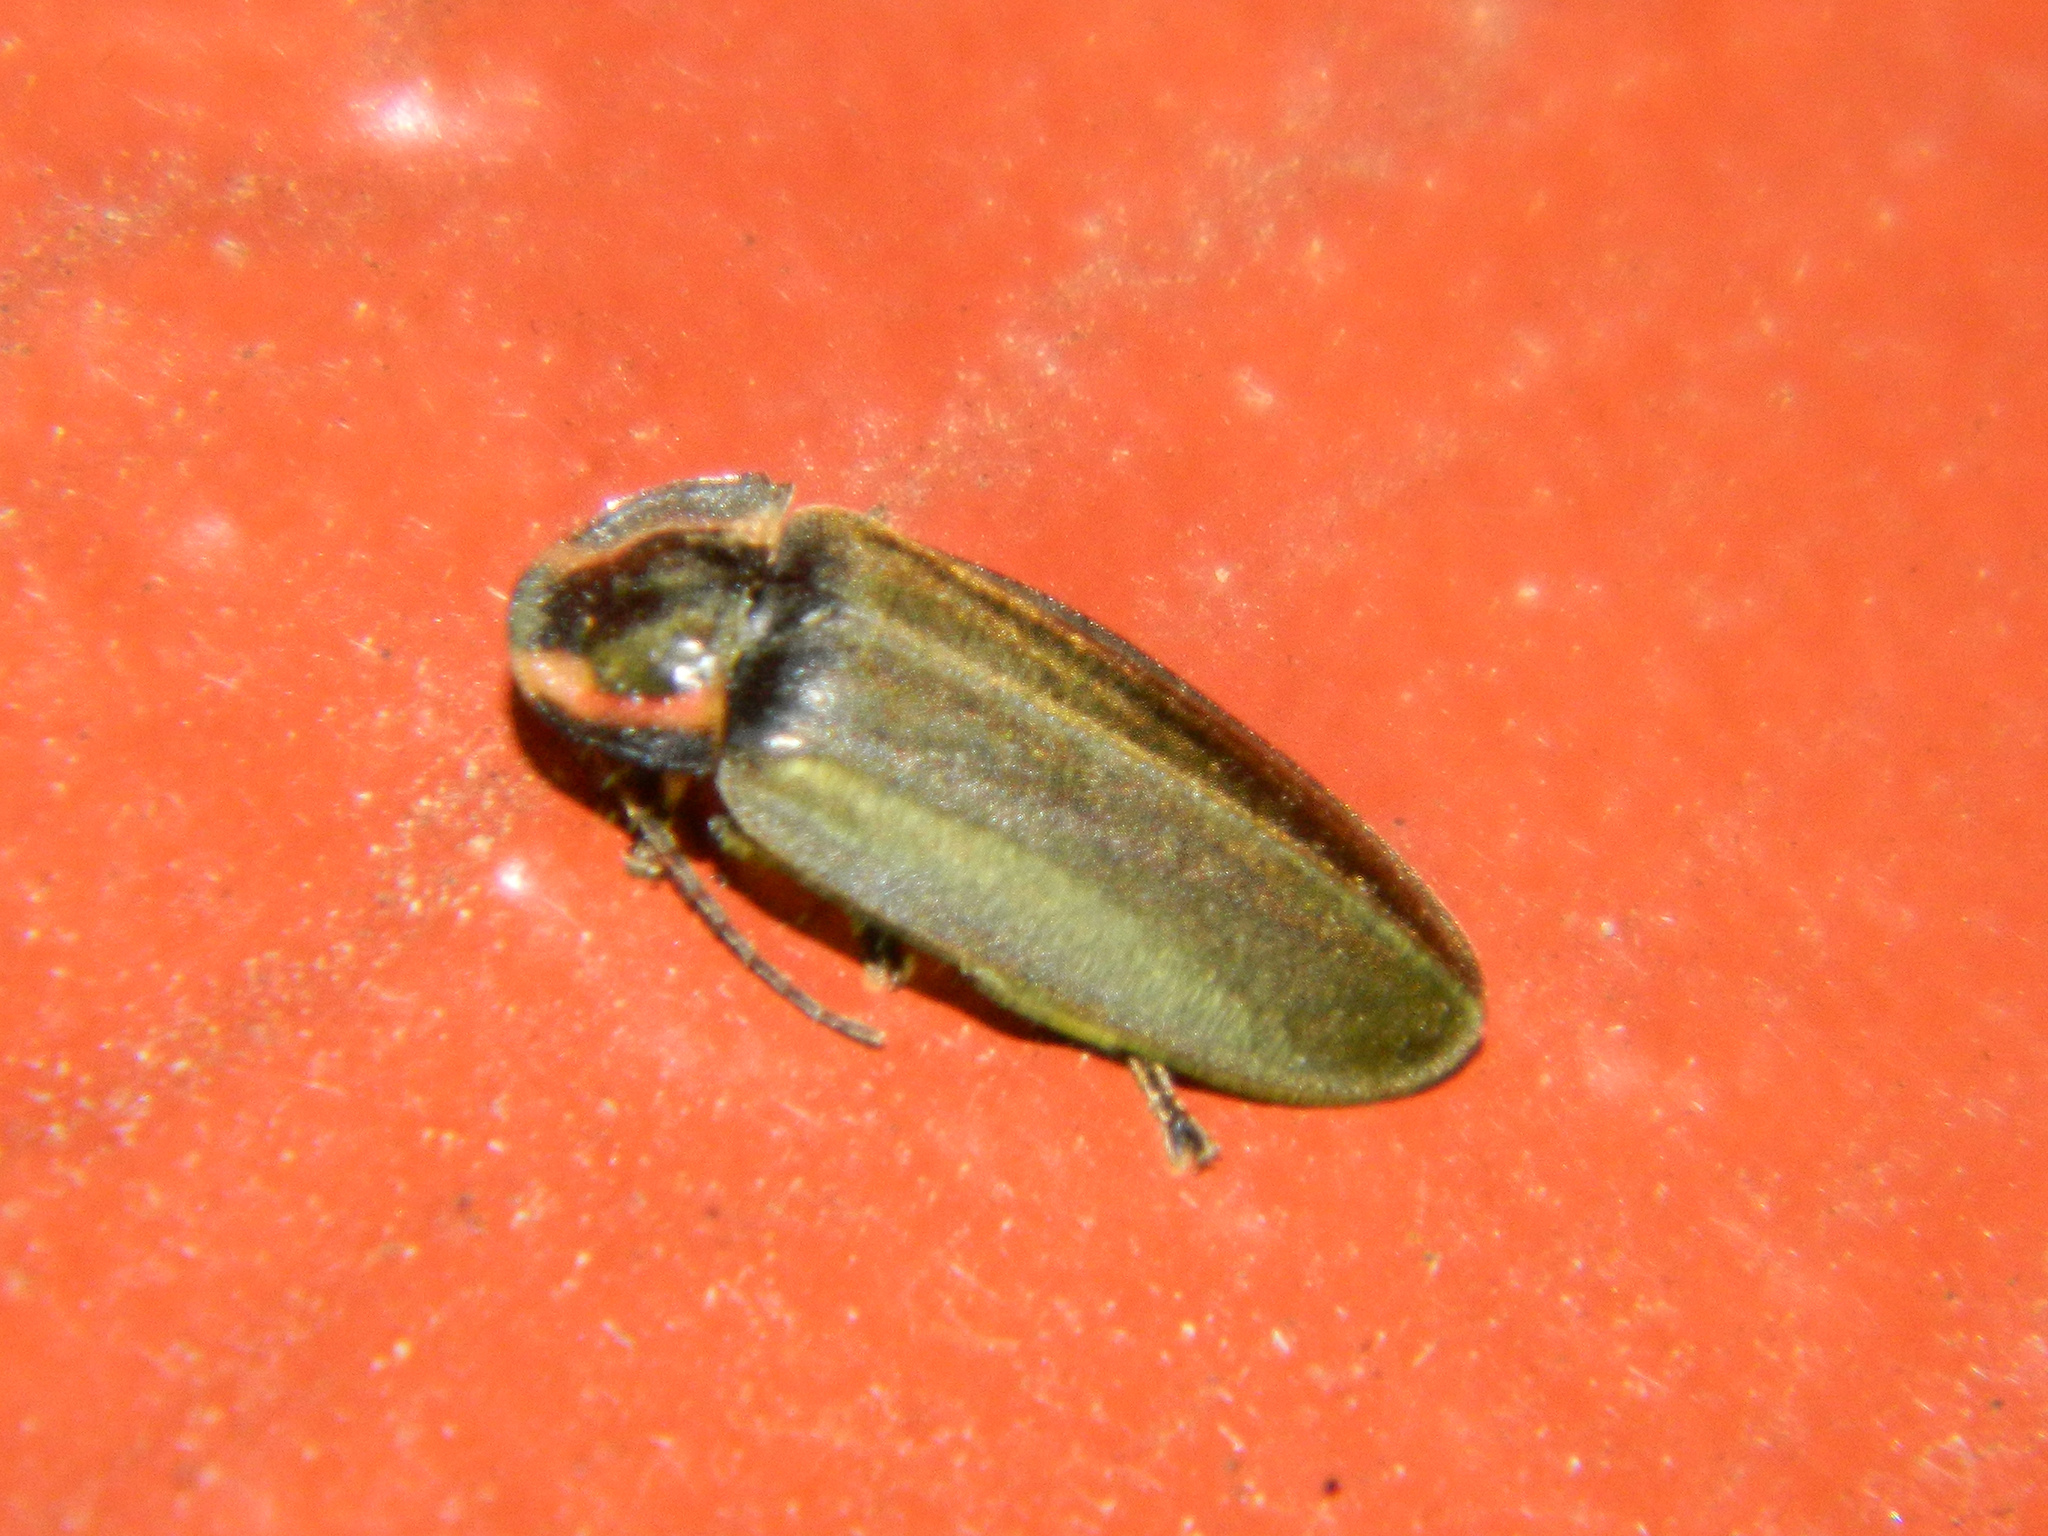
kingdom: Animalia
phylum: Arthropoda
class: Insecta
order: Coleoptera
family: Lampyridae
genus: Photinus
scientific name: Photinus corrusca
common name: Winter firefly
